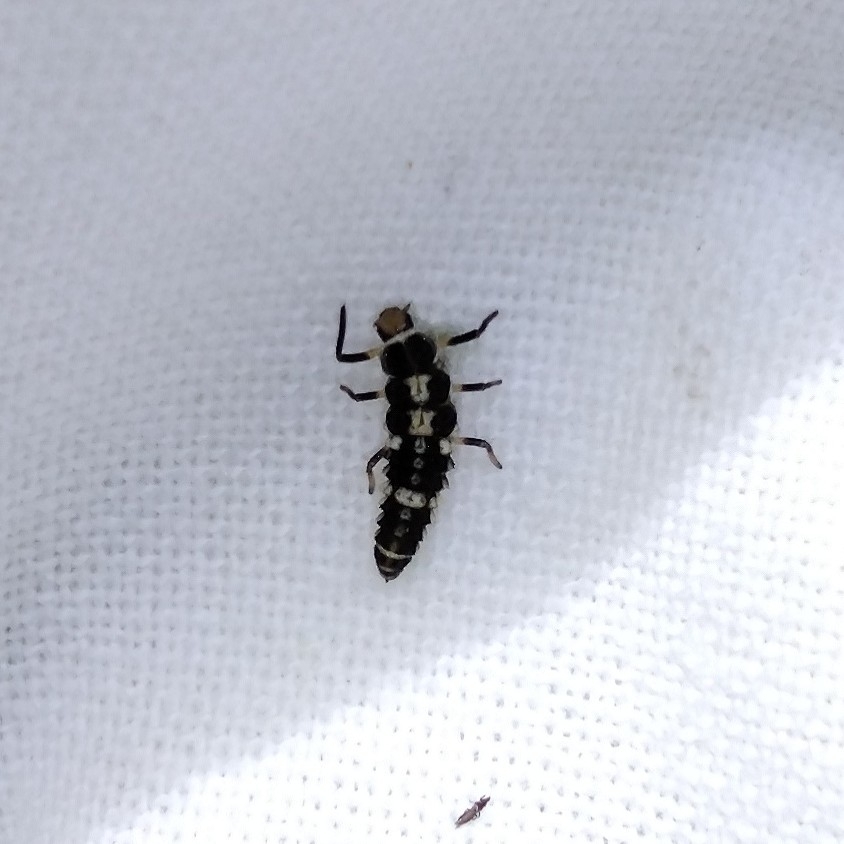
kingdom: Animalia
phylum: Arthropoda
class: Insecta
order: Coleoptera
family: Coccinellidae
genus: Propylaea
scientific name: Propylaea quatuordecimpunctata
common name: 14-spotted ladybird beetle
